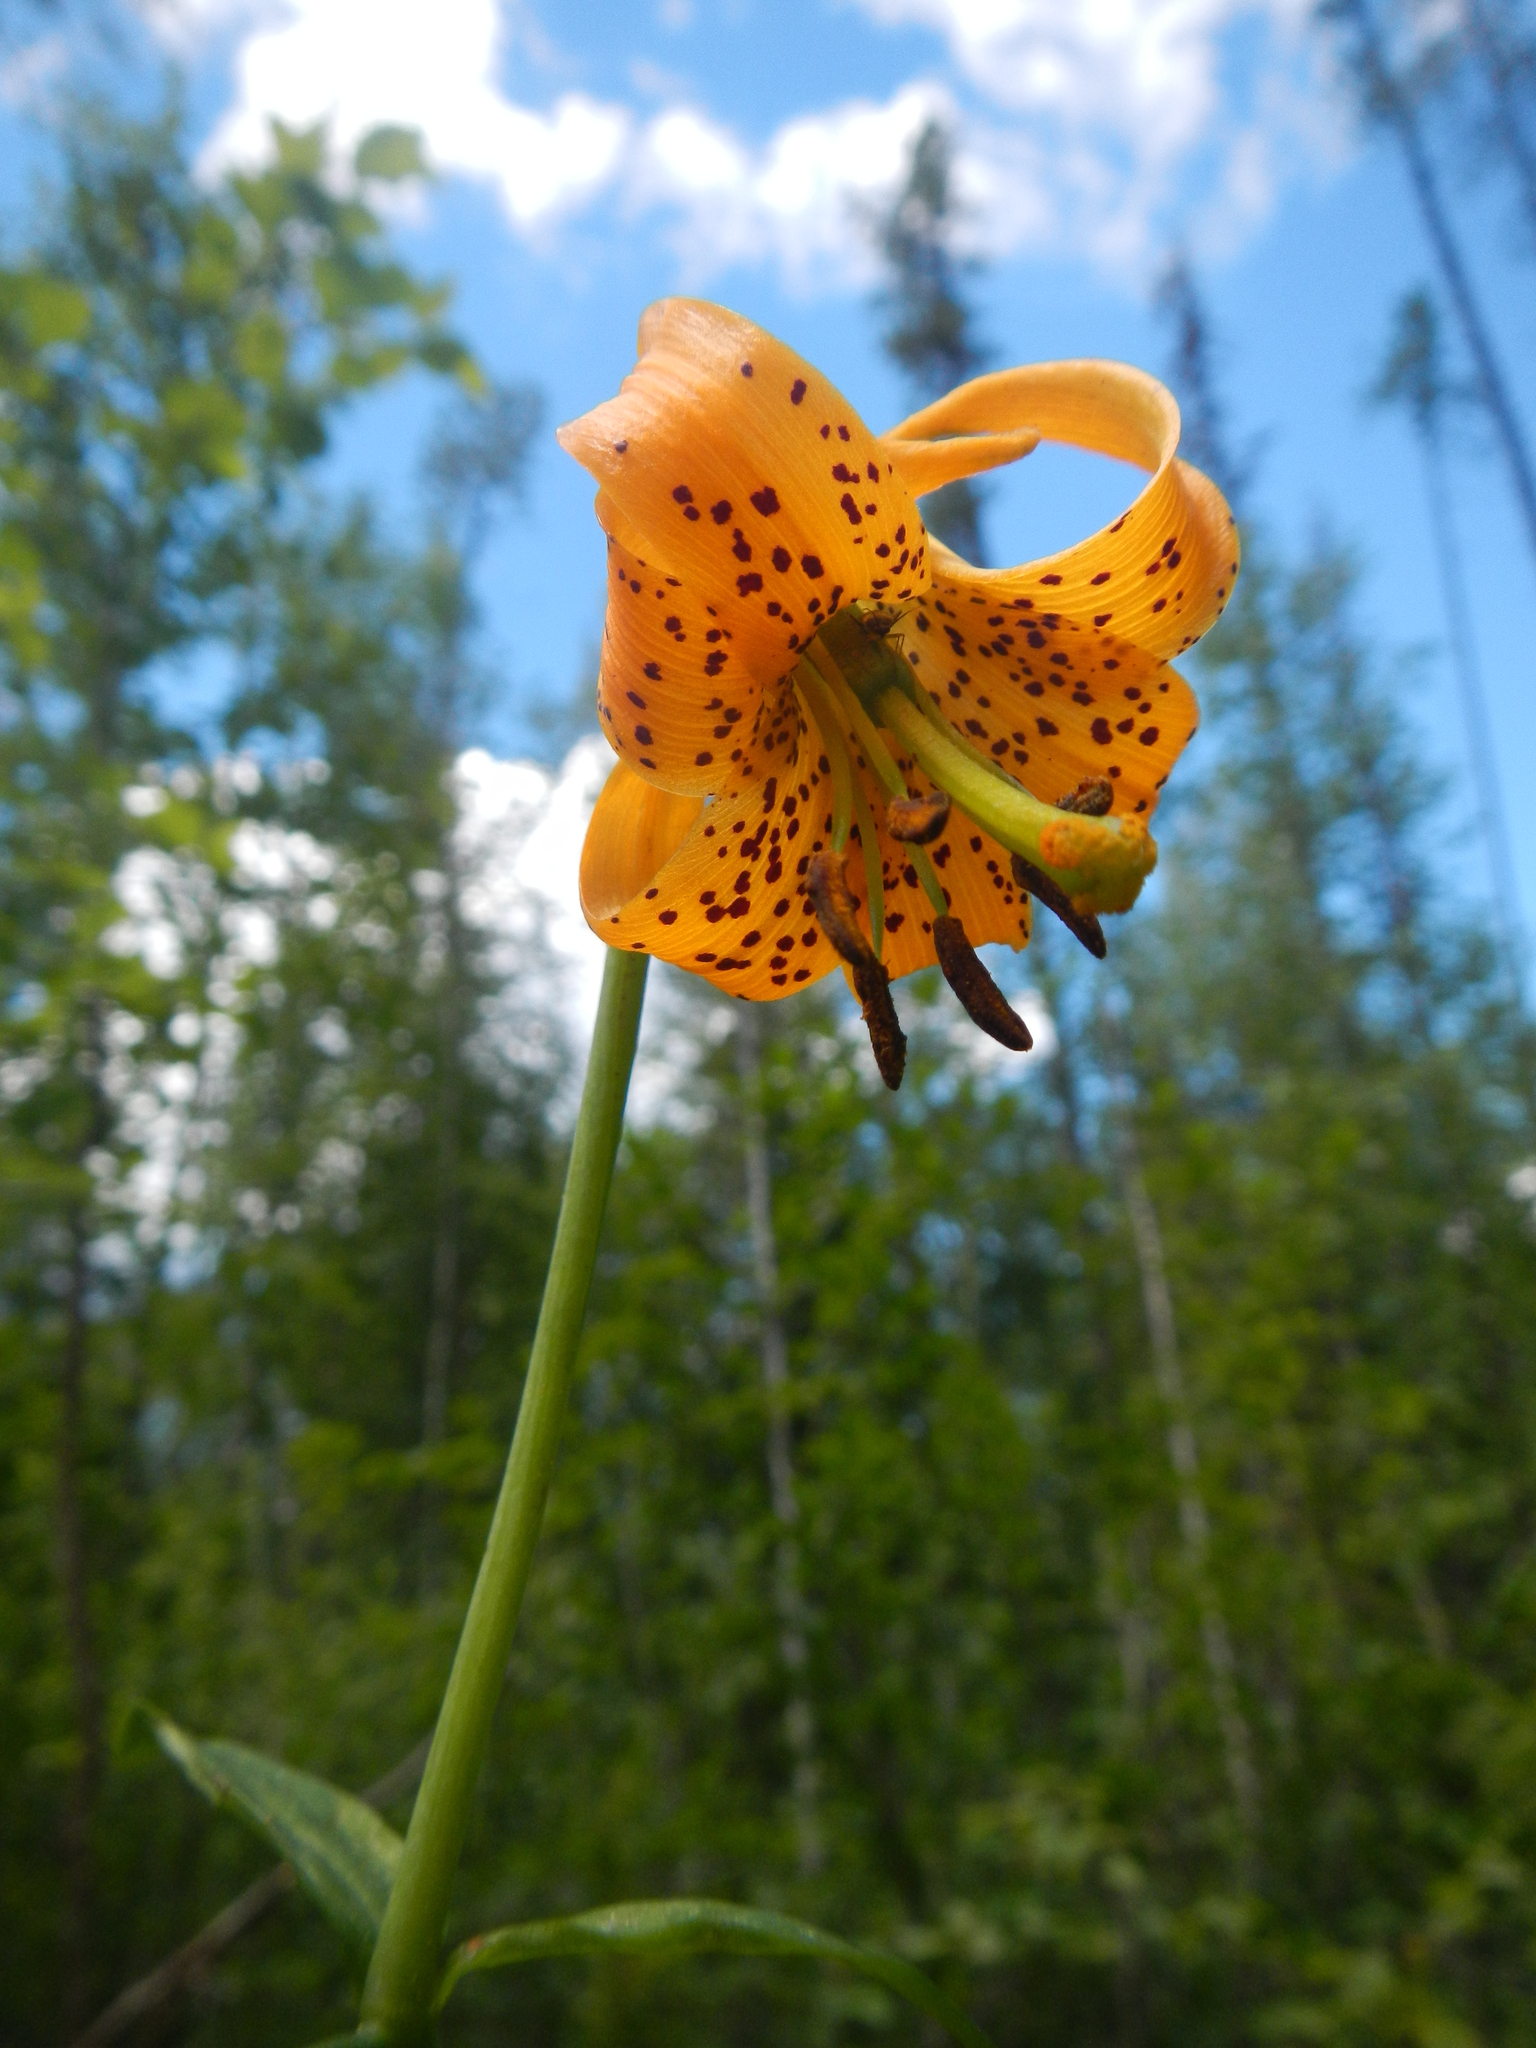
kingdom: Plantae
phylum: Tracheophyta
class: Liliopsida
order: Liliales
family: Liliaceae
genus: Lilium
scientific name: Lilium columbianum
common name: Columbia lily
